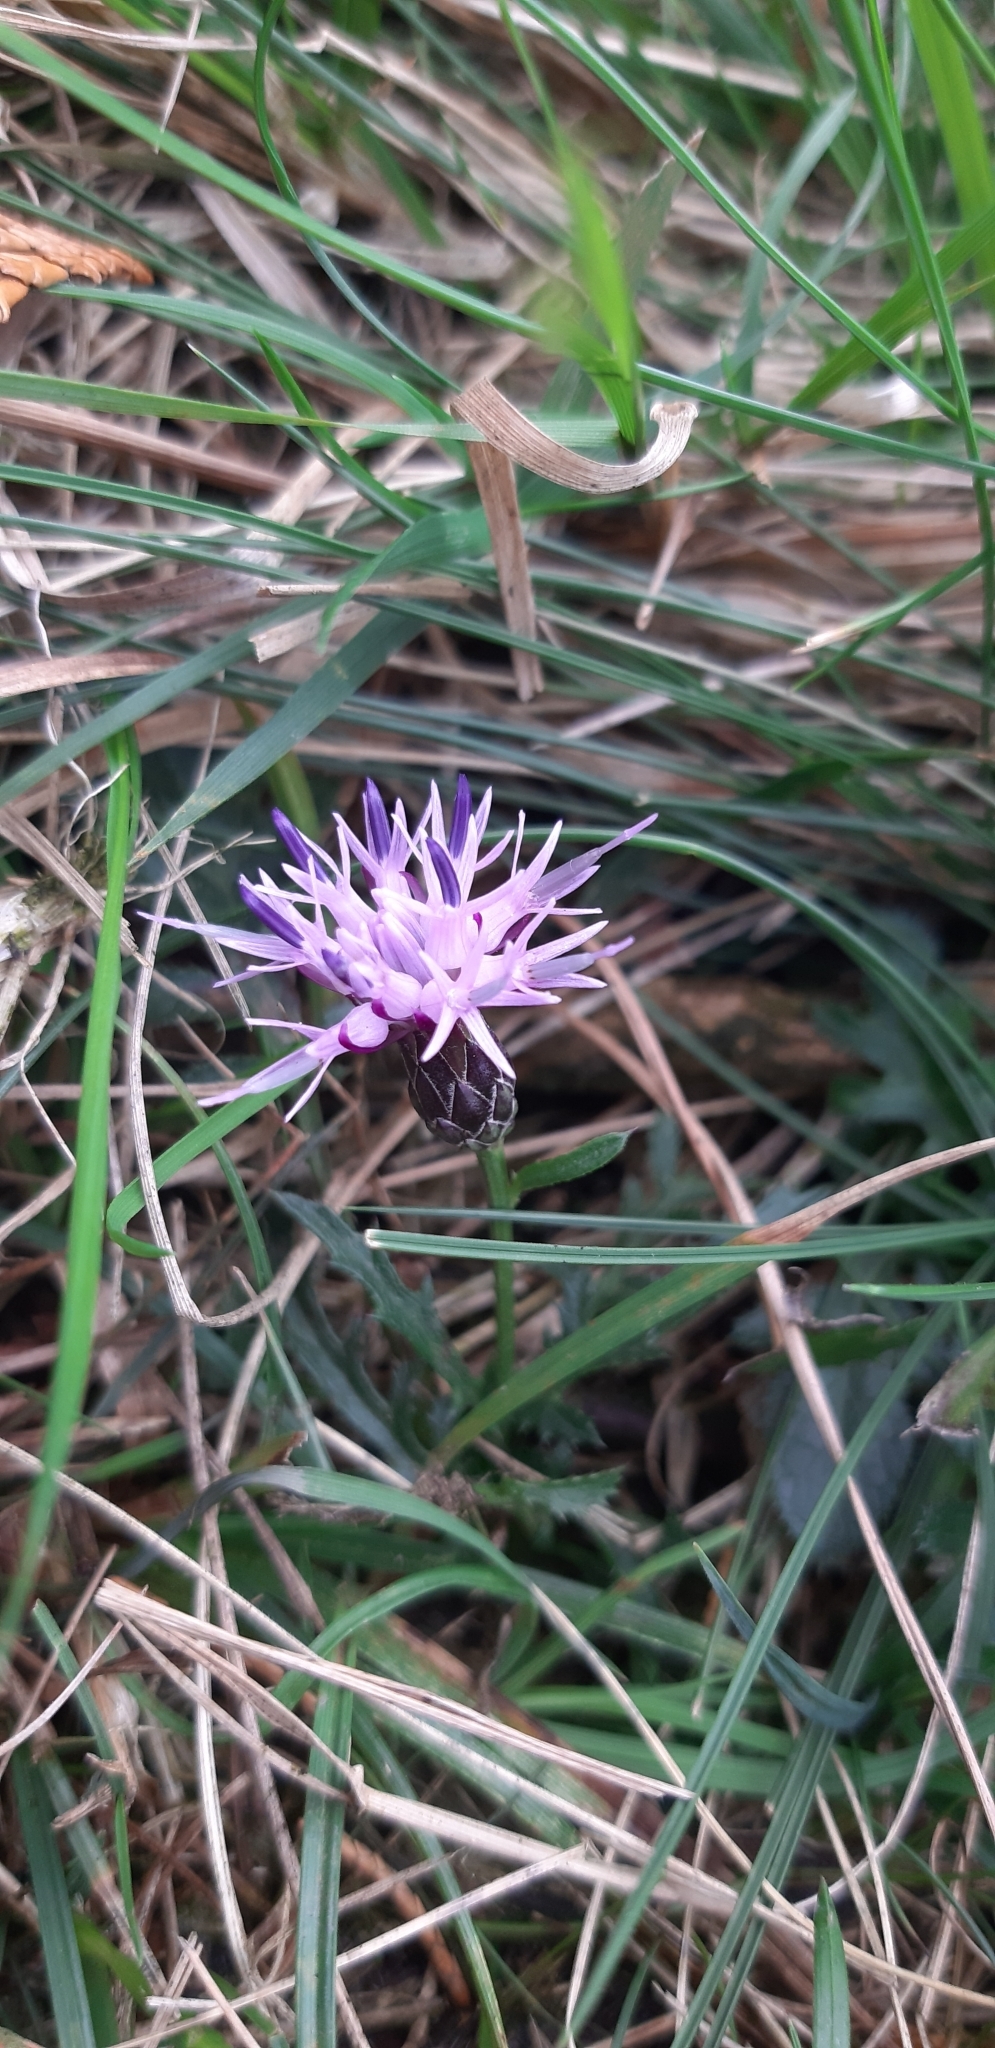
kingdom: Plantae
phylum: Tracheophyta
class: Magnoliopsida
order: Asterales
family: Asteraceae
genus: Serratula
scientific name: Serratula tinctoria
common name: Saw-wort
